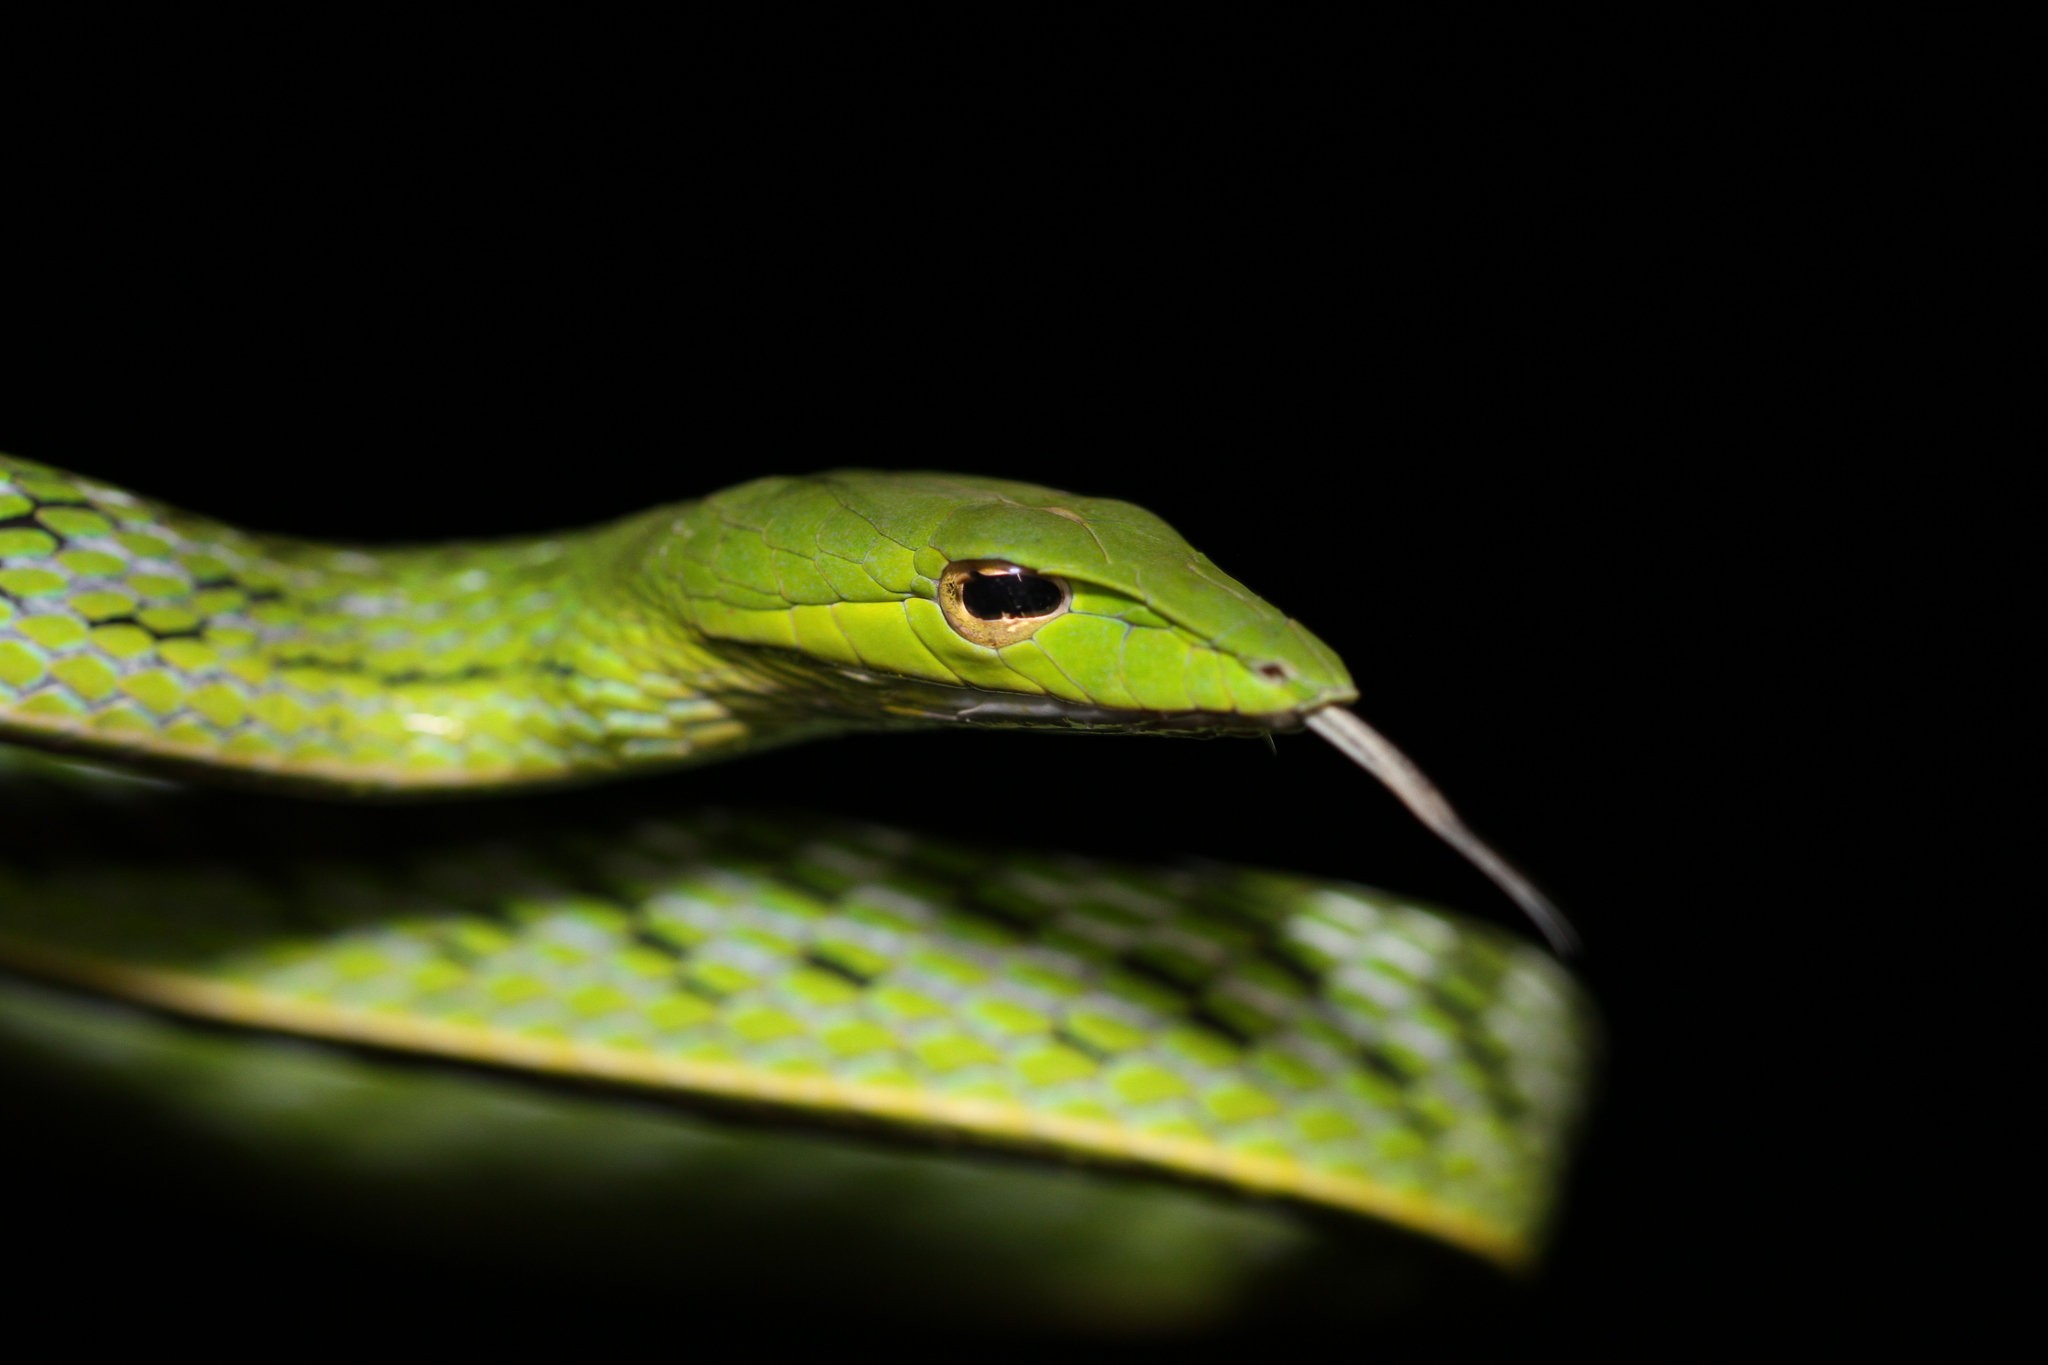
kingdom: Animalia
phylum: Chordata
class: Squamata
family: Colubridae
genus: Ahaetulla
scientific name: Ahaetulla prasina
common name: Oriental whip snake
